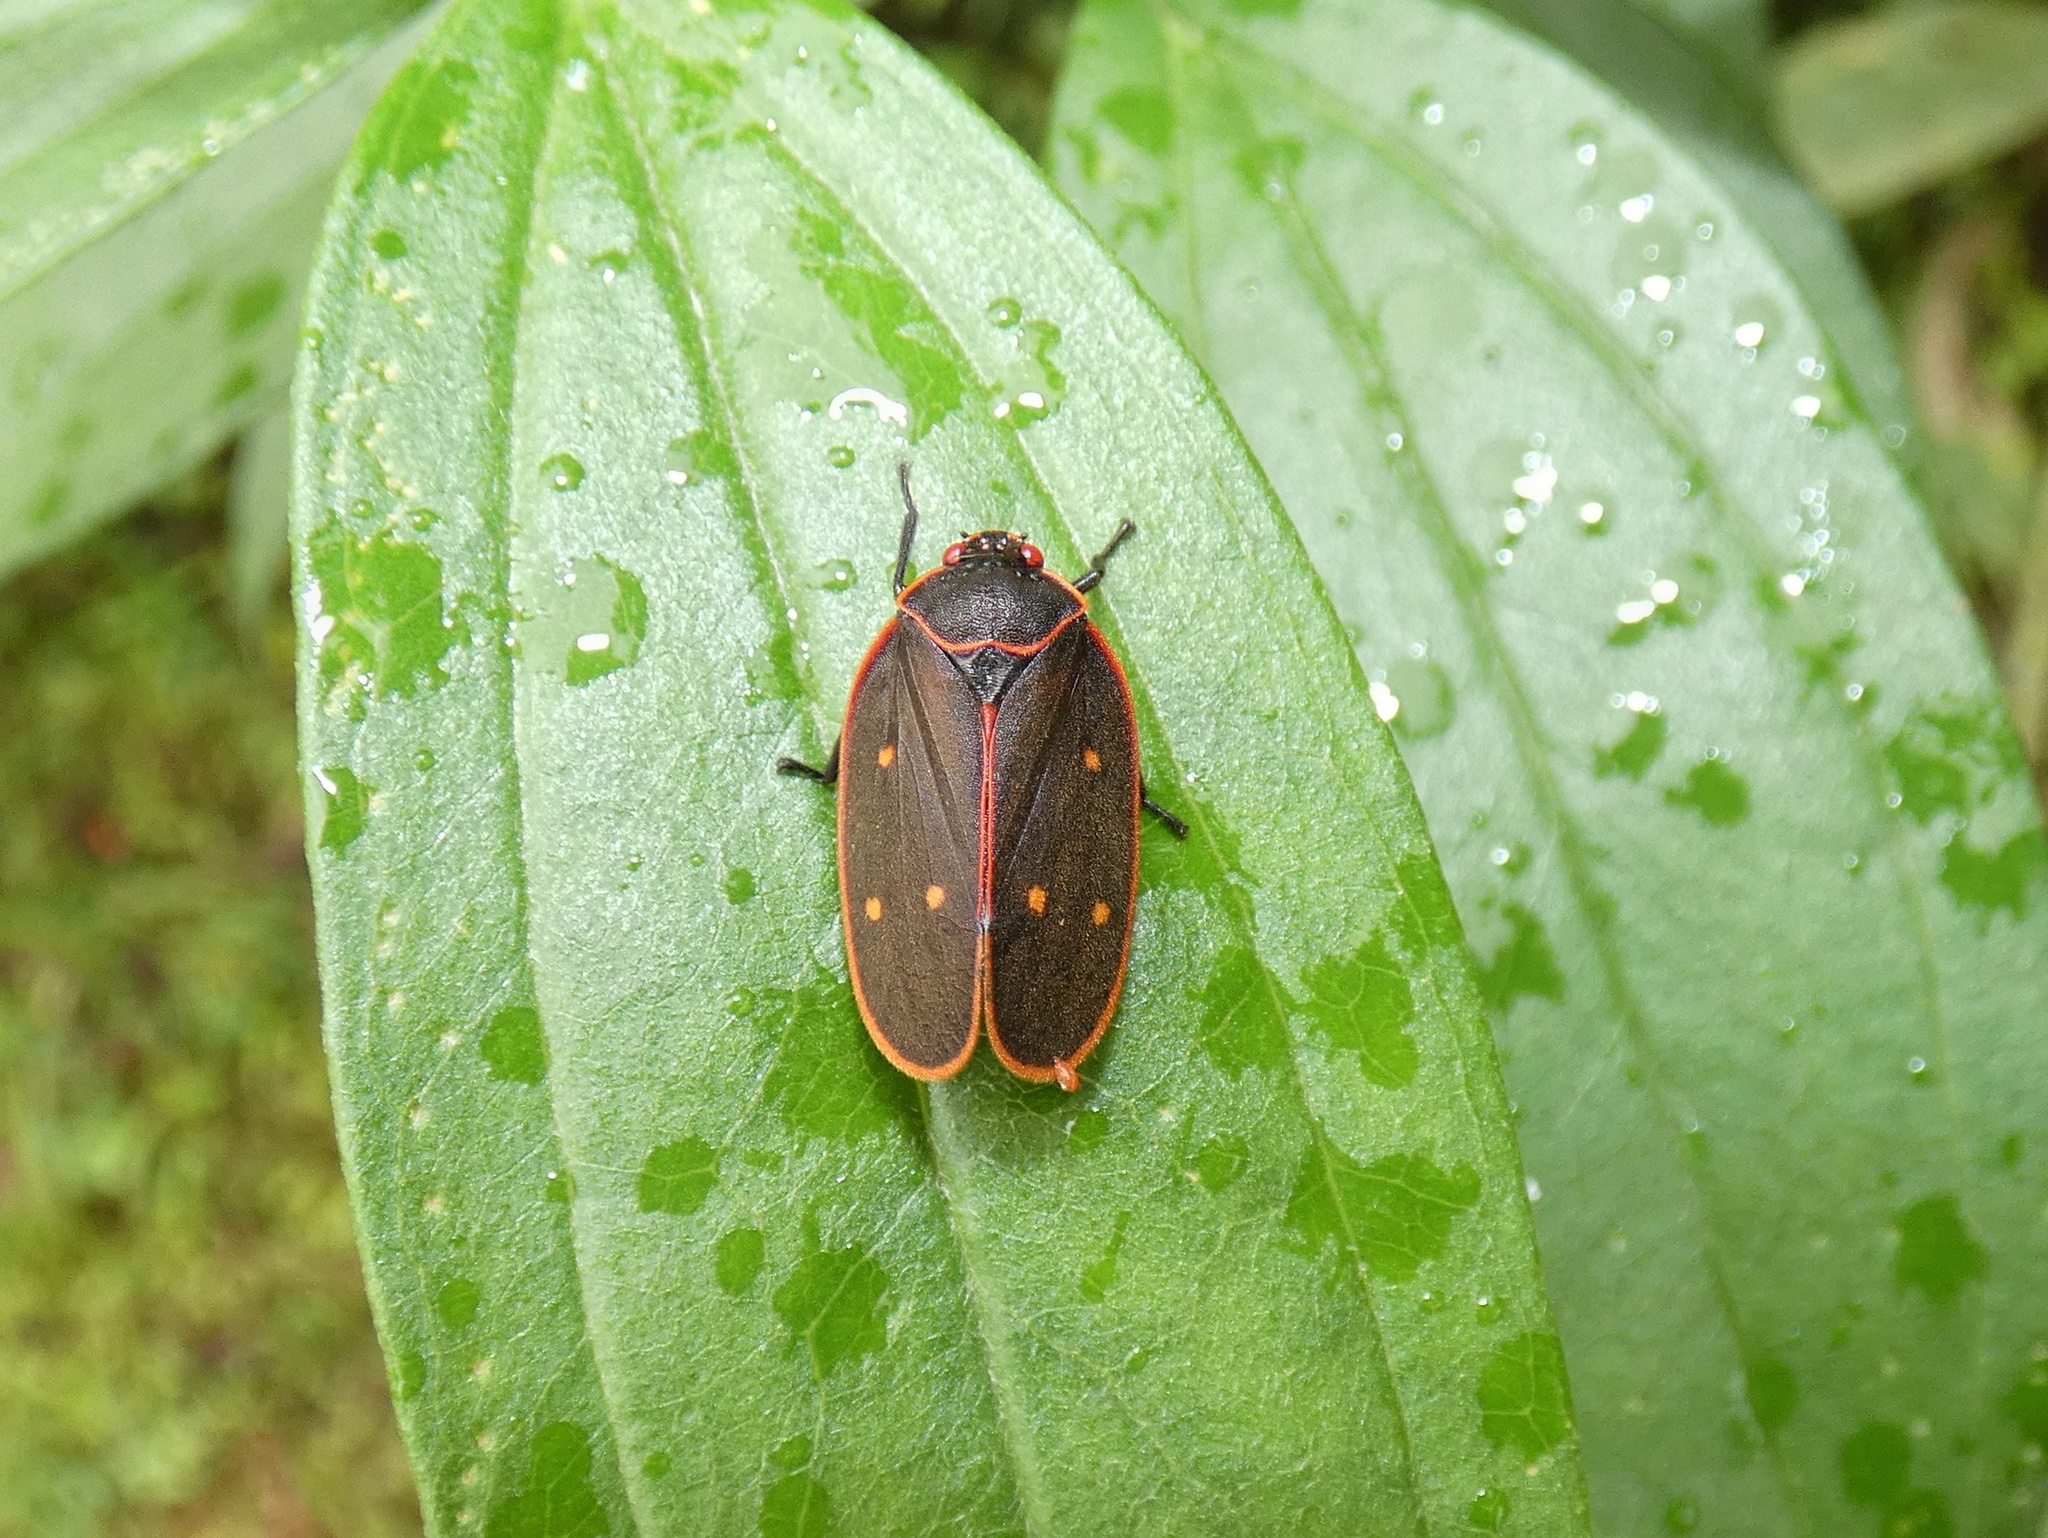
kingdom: Animalia
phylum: Arthropoda
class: Insecta
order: Hemiptera
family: Cercopidae
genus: Iphirhina
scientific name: Iphirhina quota
